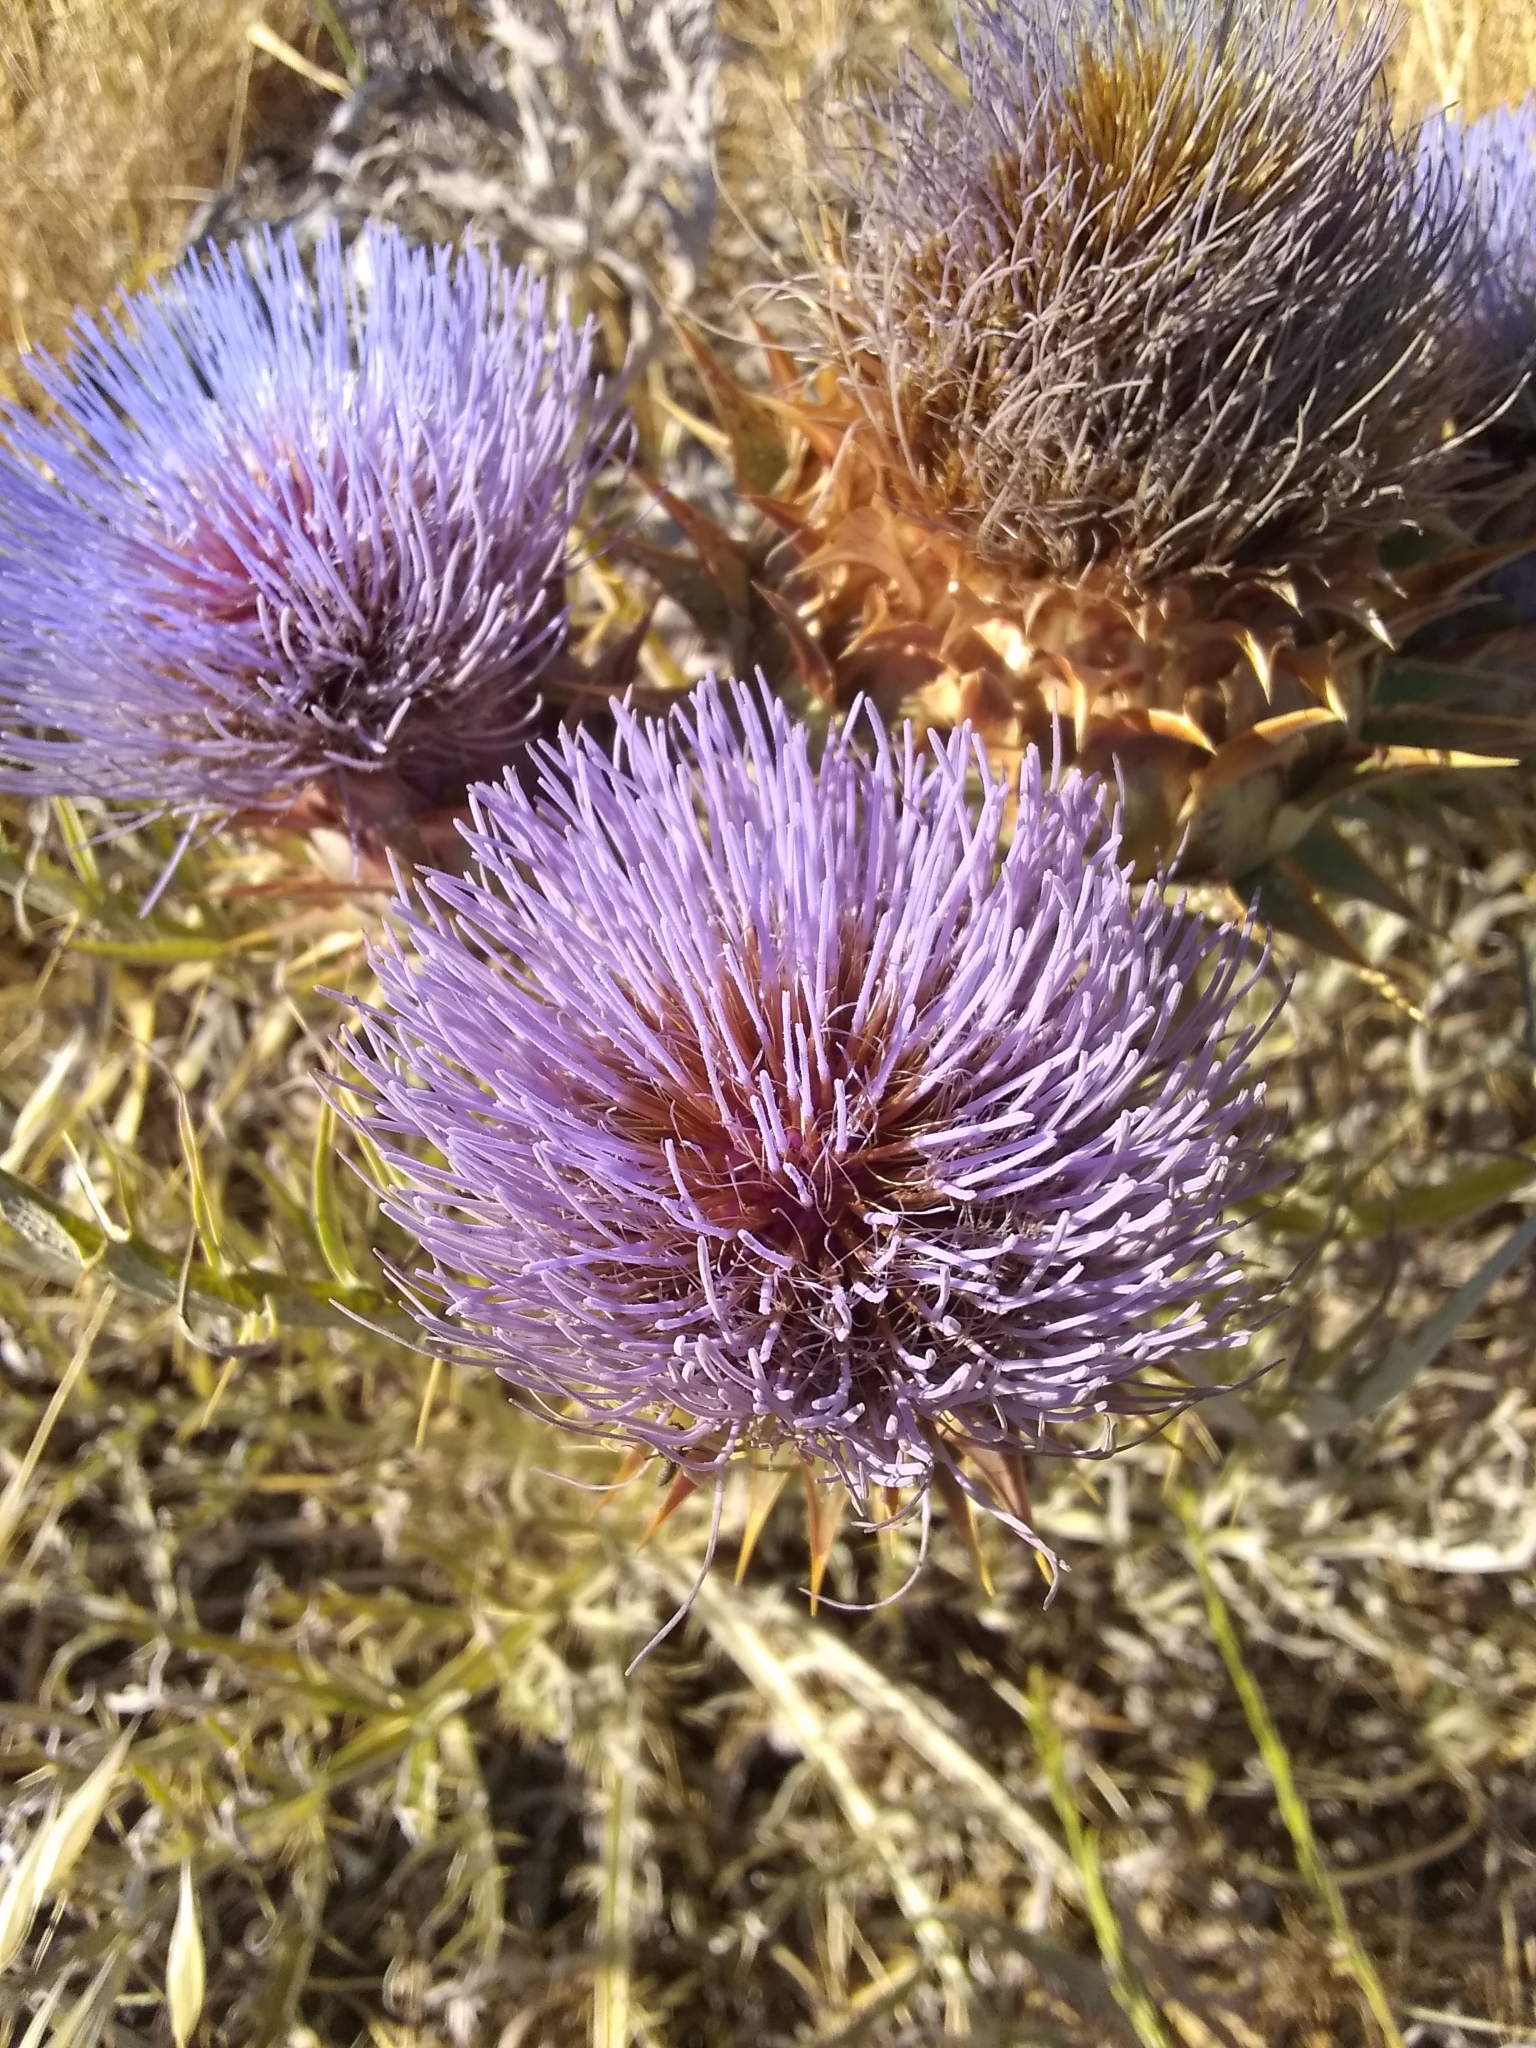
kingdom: Plantae
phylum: Tracheophyta
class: Magnoliopsida
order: Asterales
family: Asteraceae
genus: Cynara
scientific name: Cynara cardunculus
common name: Globe artichoke
